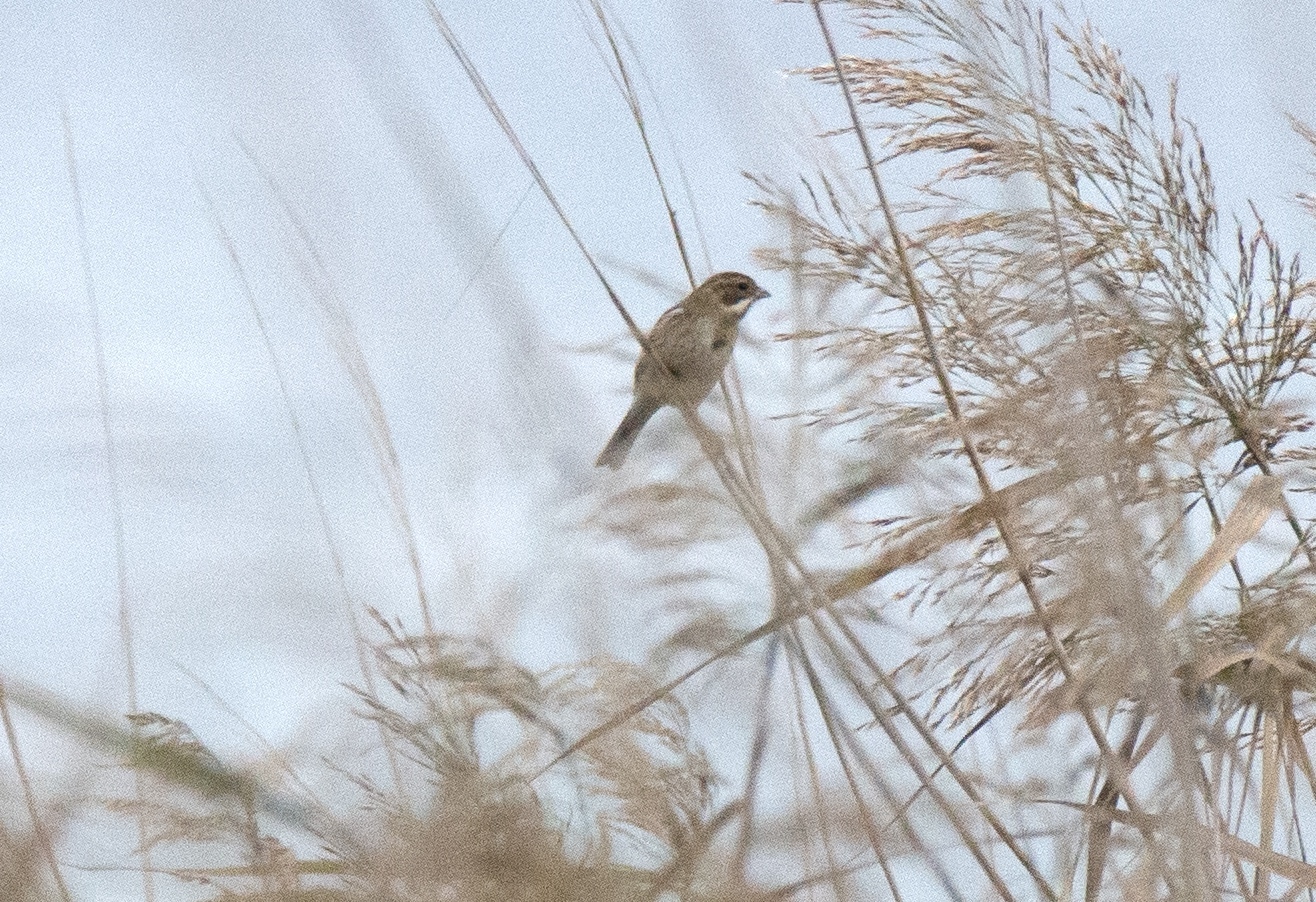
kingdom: Animalia
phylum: Chordata
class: Aves
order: Passeriformes
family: Emberizidae
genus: Emberiza
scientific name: Emberiza schoeniclus
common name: Reed bunting
